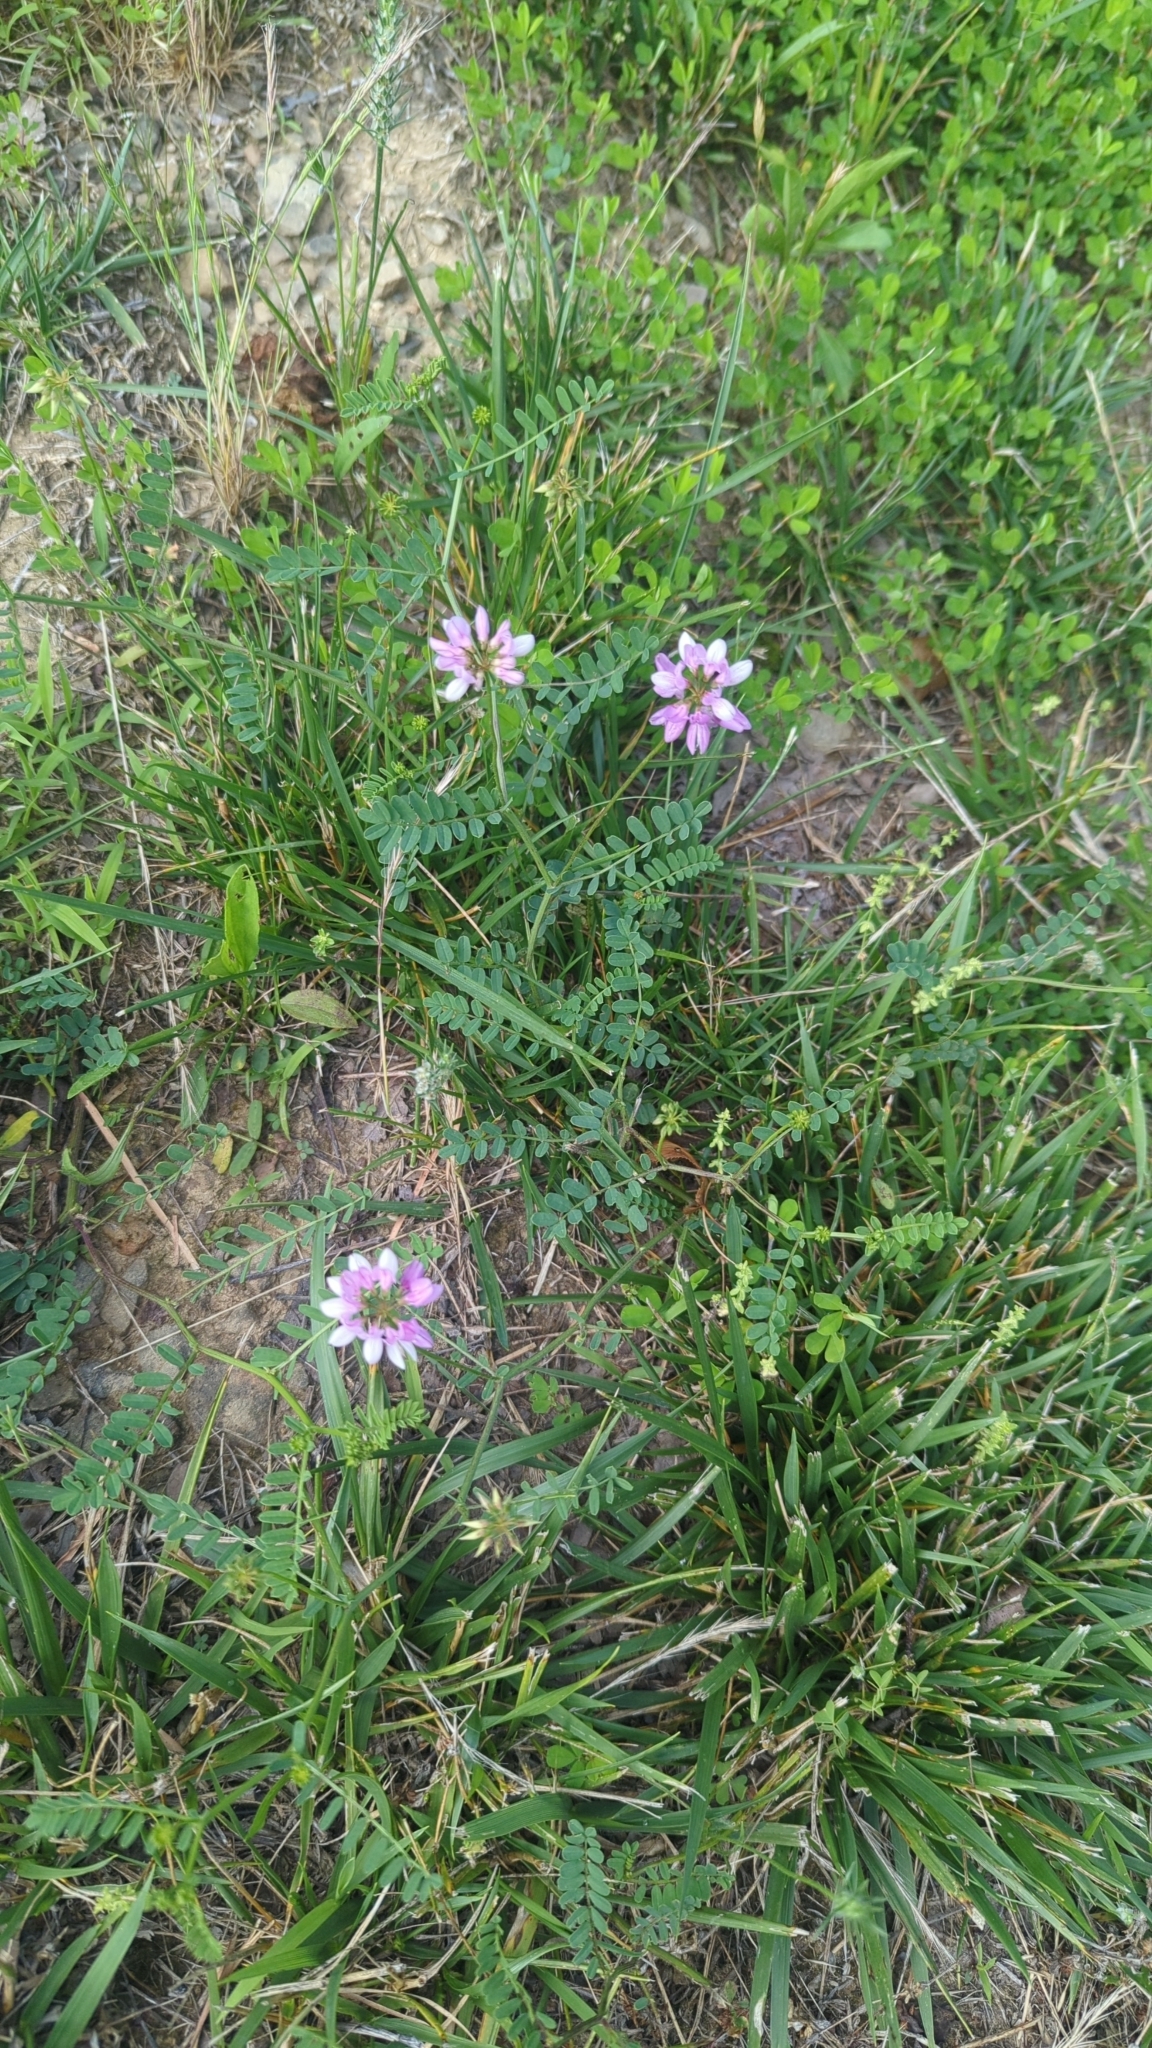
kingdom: Plantae
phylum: Tracheophyta
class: Magnoliopsida
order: Fabales
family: Fabaceae
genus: Coronilla
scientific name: Coronilla varia
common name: Crownvetch
